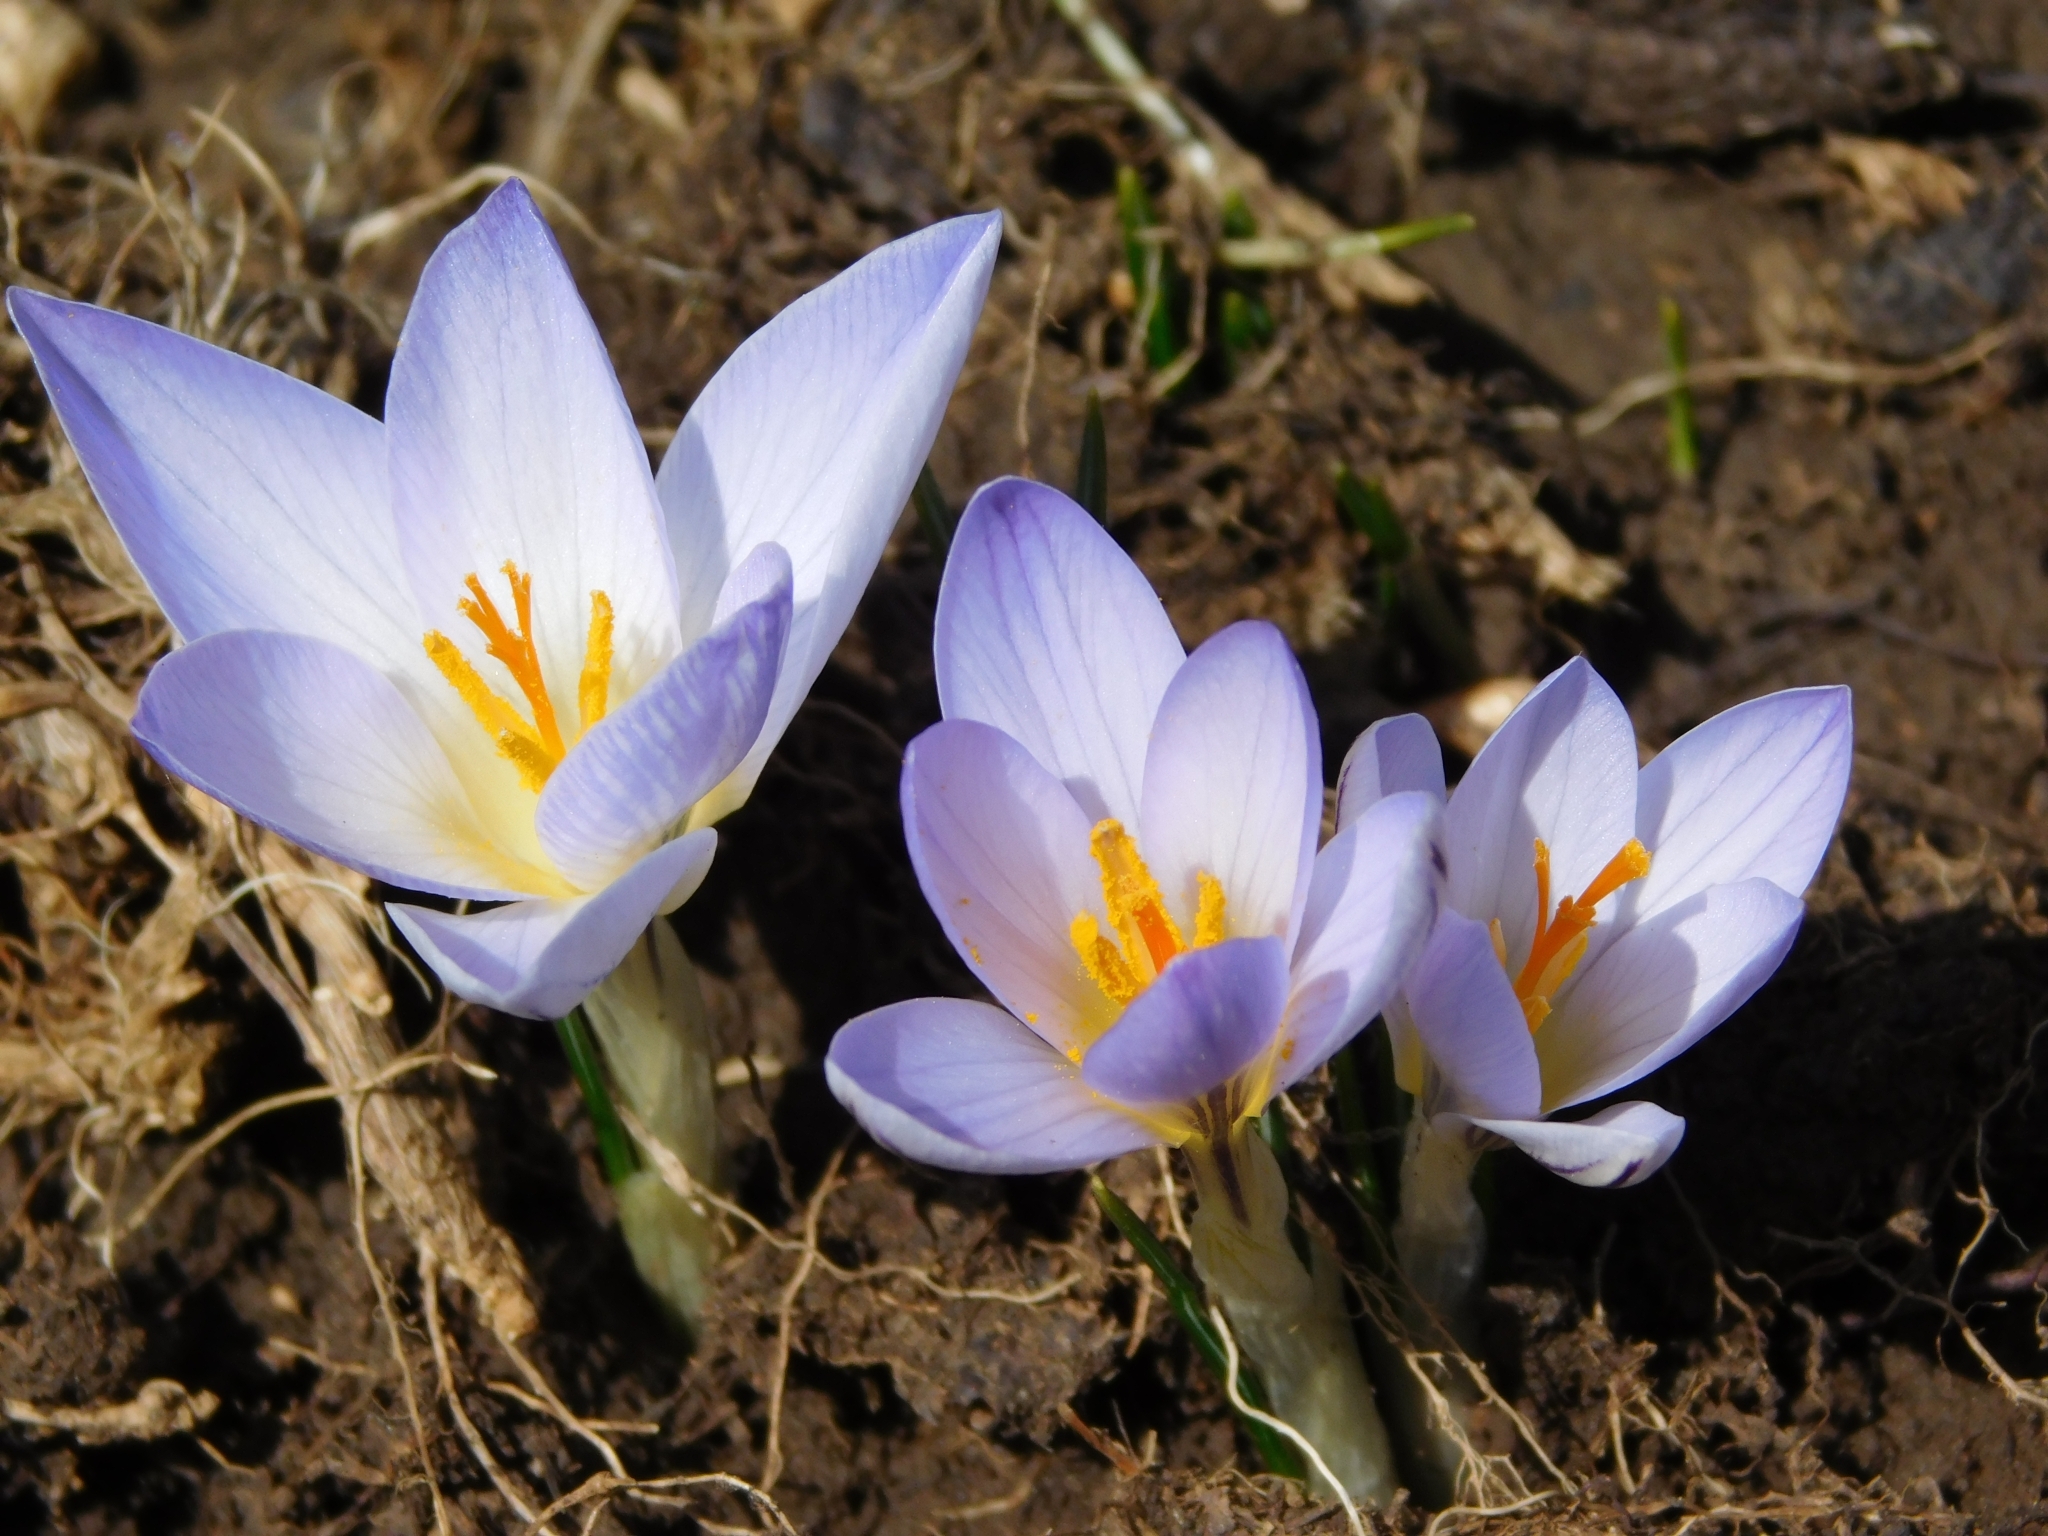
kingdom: Plantae
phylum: Tracheophyta
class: Liliopsida
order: Asparagales
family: Iridaceae
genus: Crocus
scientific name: Crocus reticulatus
